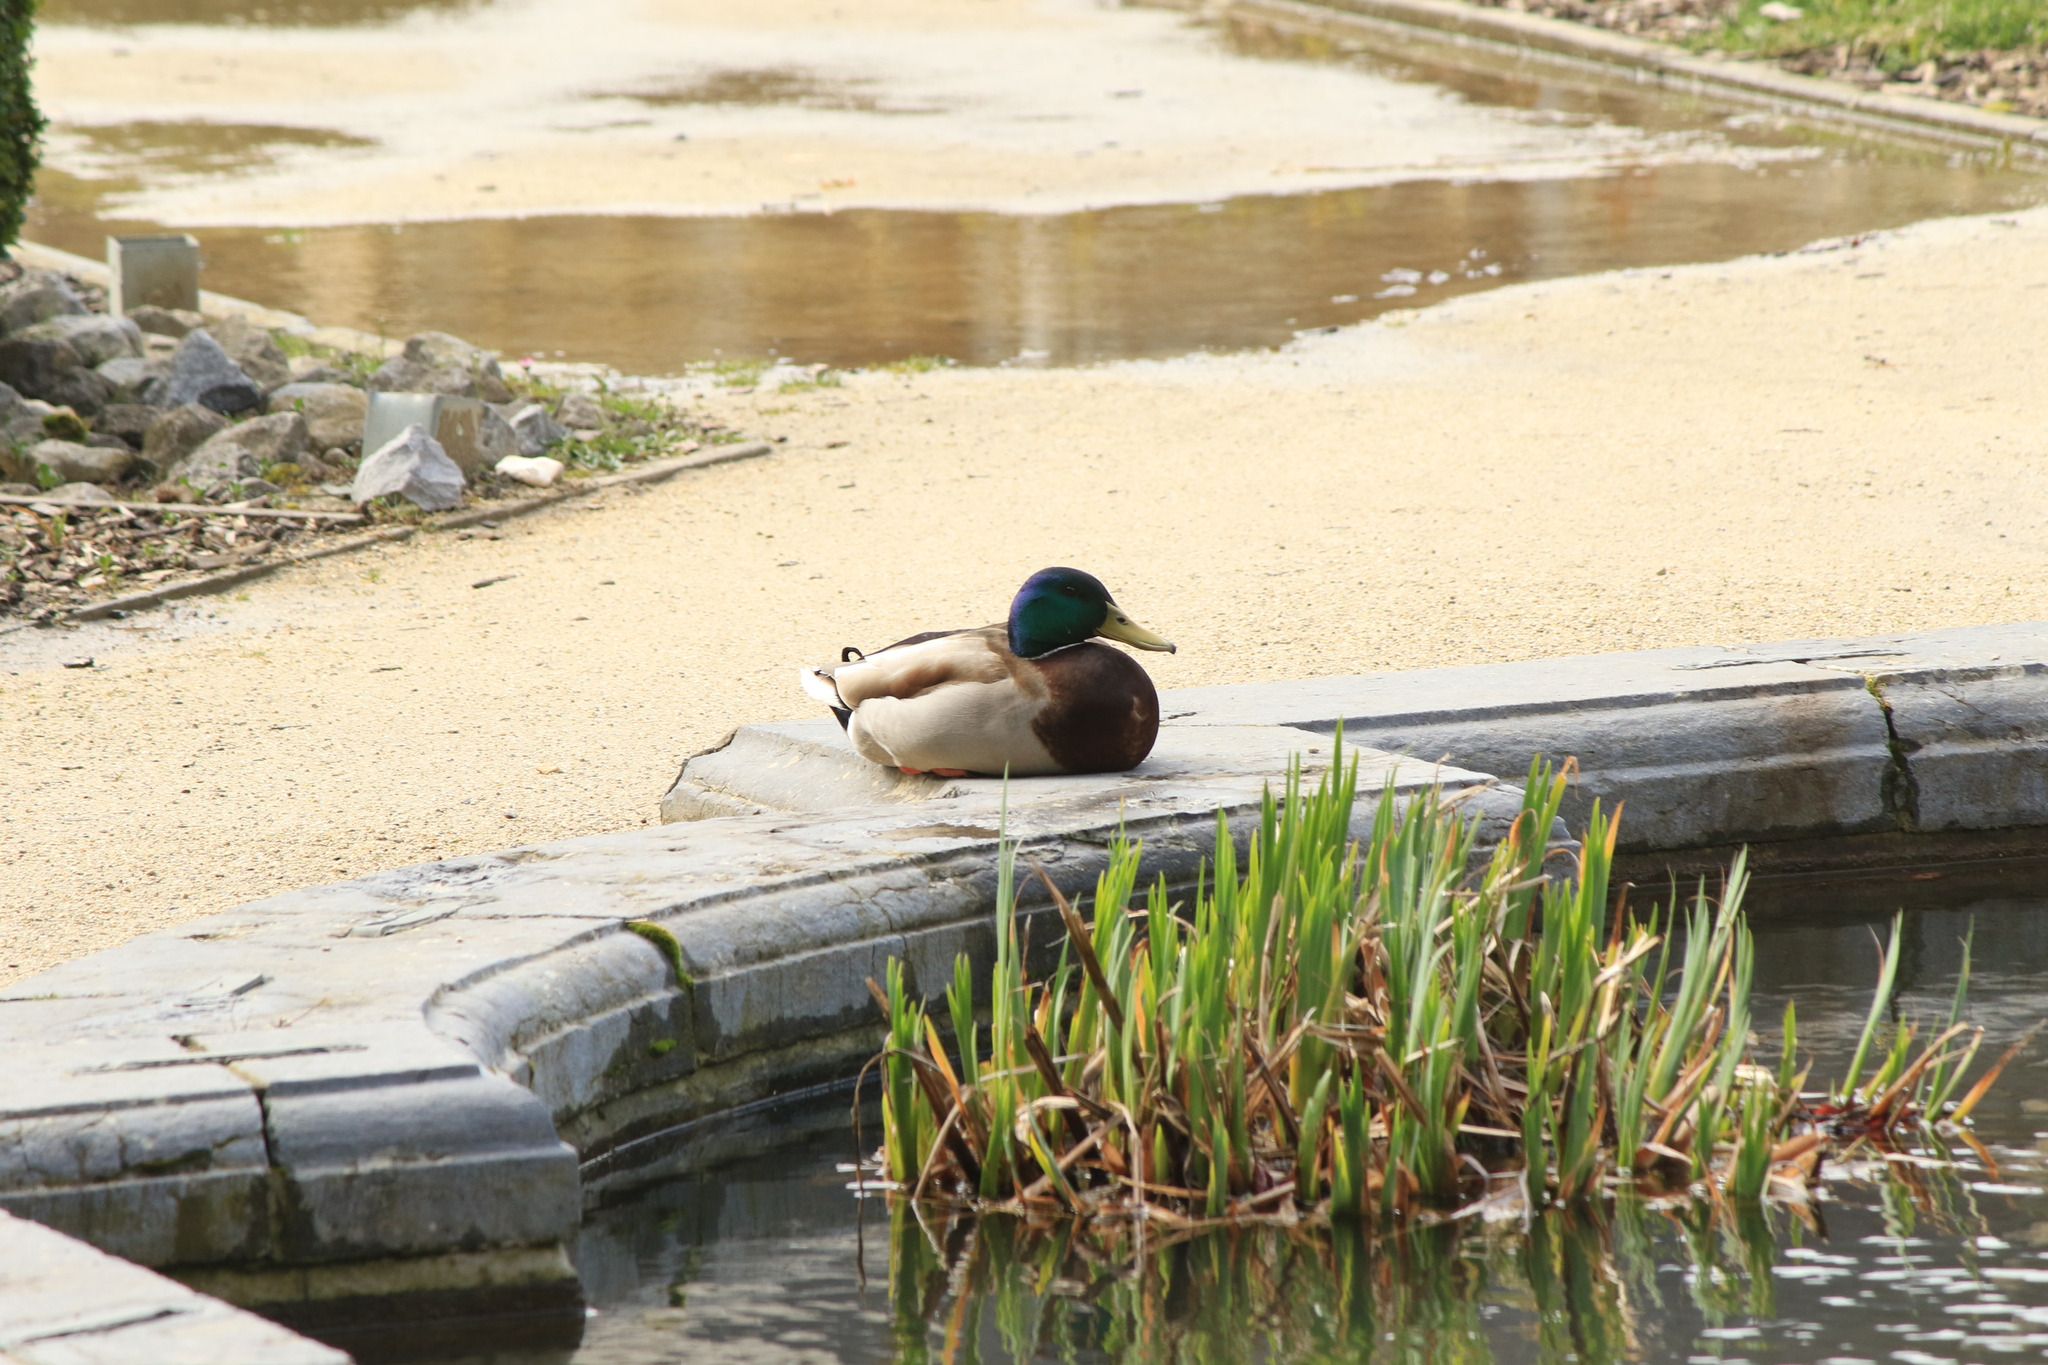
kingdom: Animalia
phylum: Chordata
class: Aves
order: Anseriformes
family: Anatidae
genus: Anas
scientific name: Anas platyrhynchos
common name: Mallard
